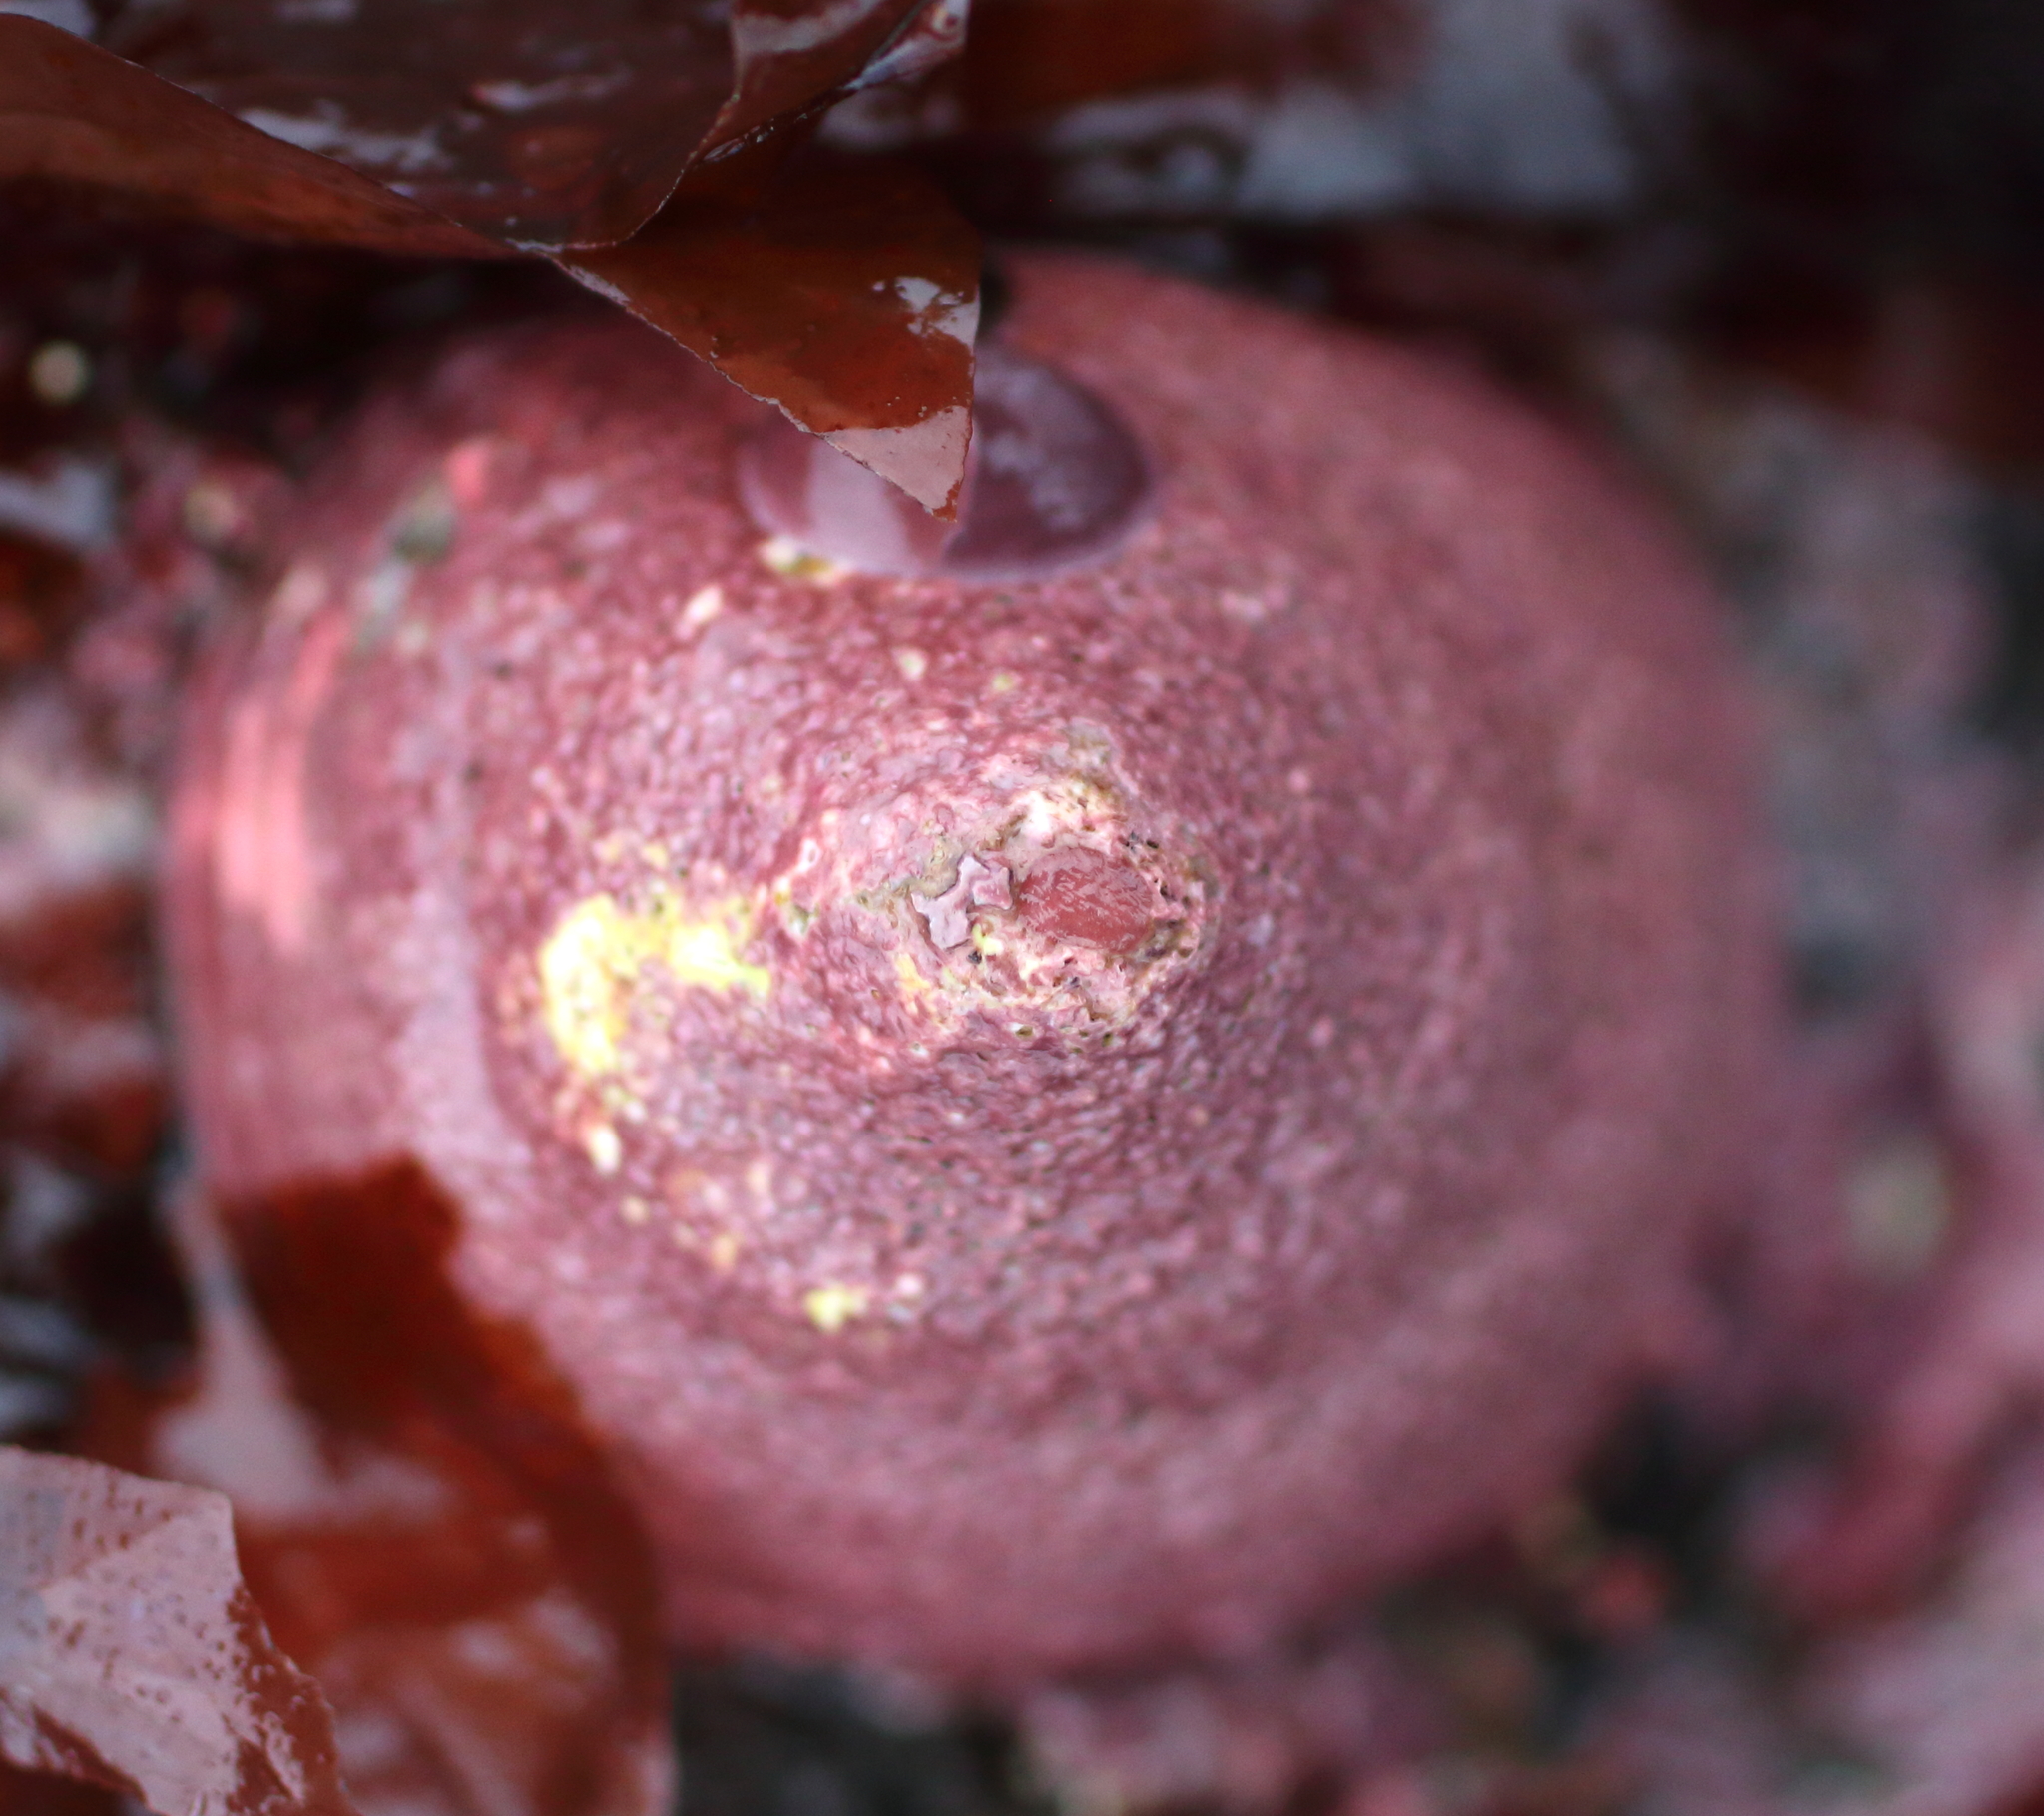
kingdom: Animalia
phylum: Mollusca
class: Gastropoda
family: Acmaeidae
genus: Acmaea
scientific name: Acmaea mitra
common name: Pacific white cap limpet
